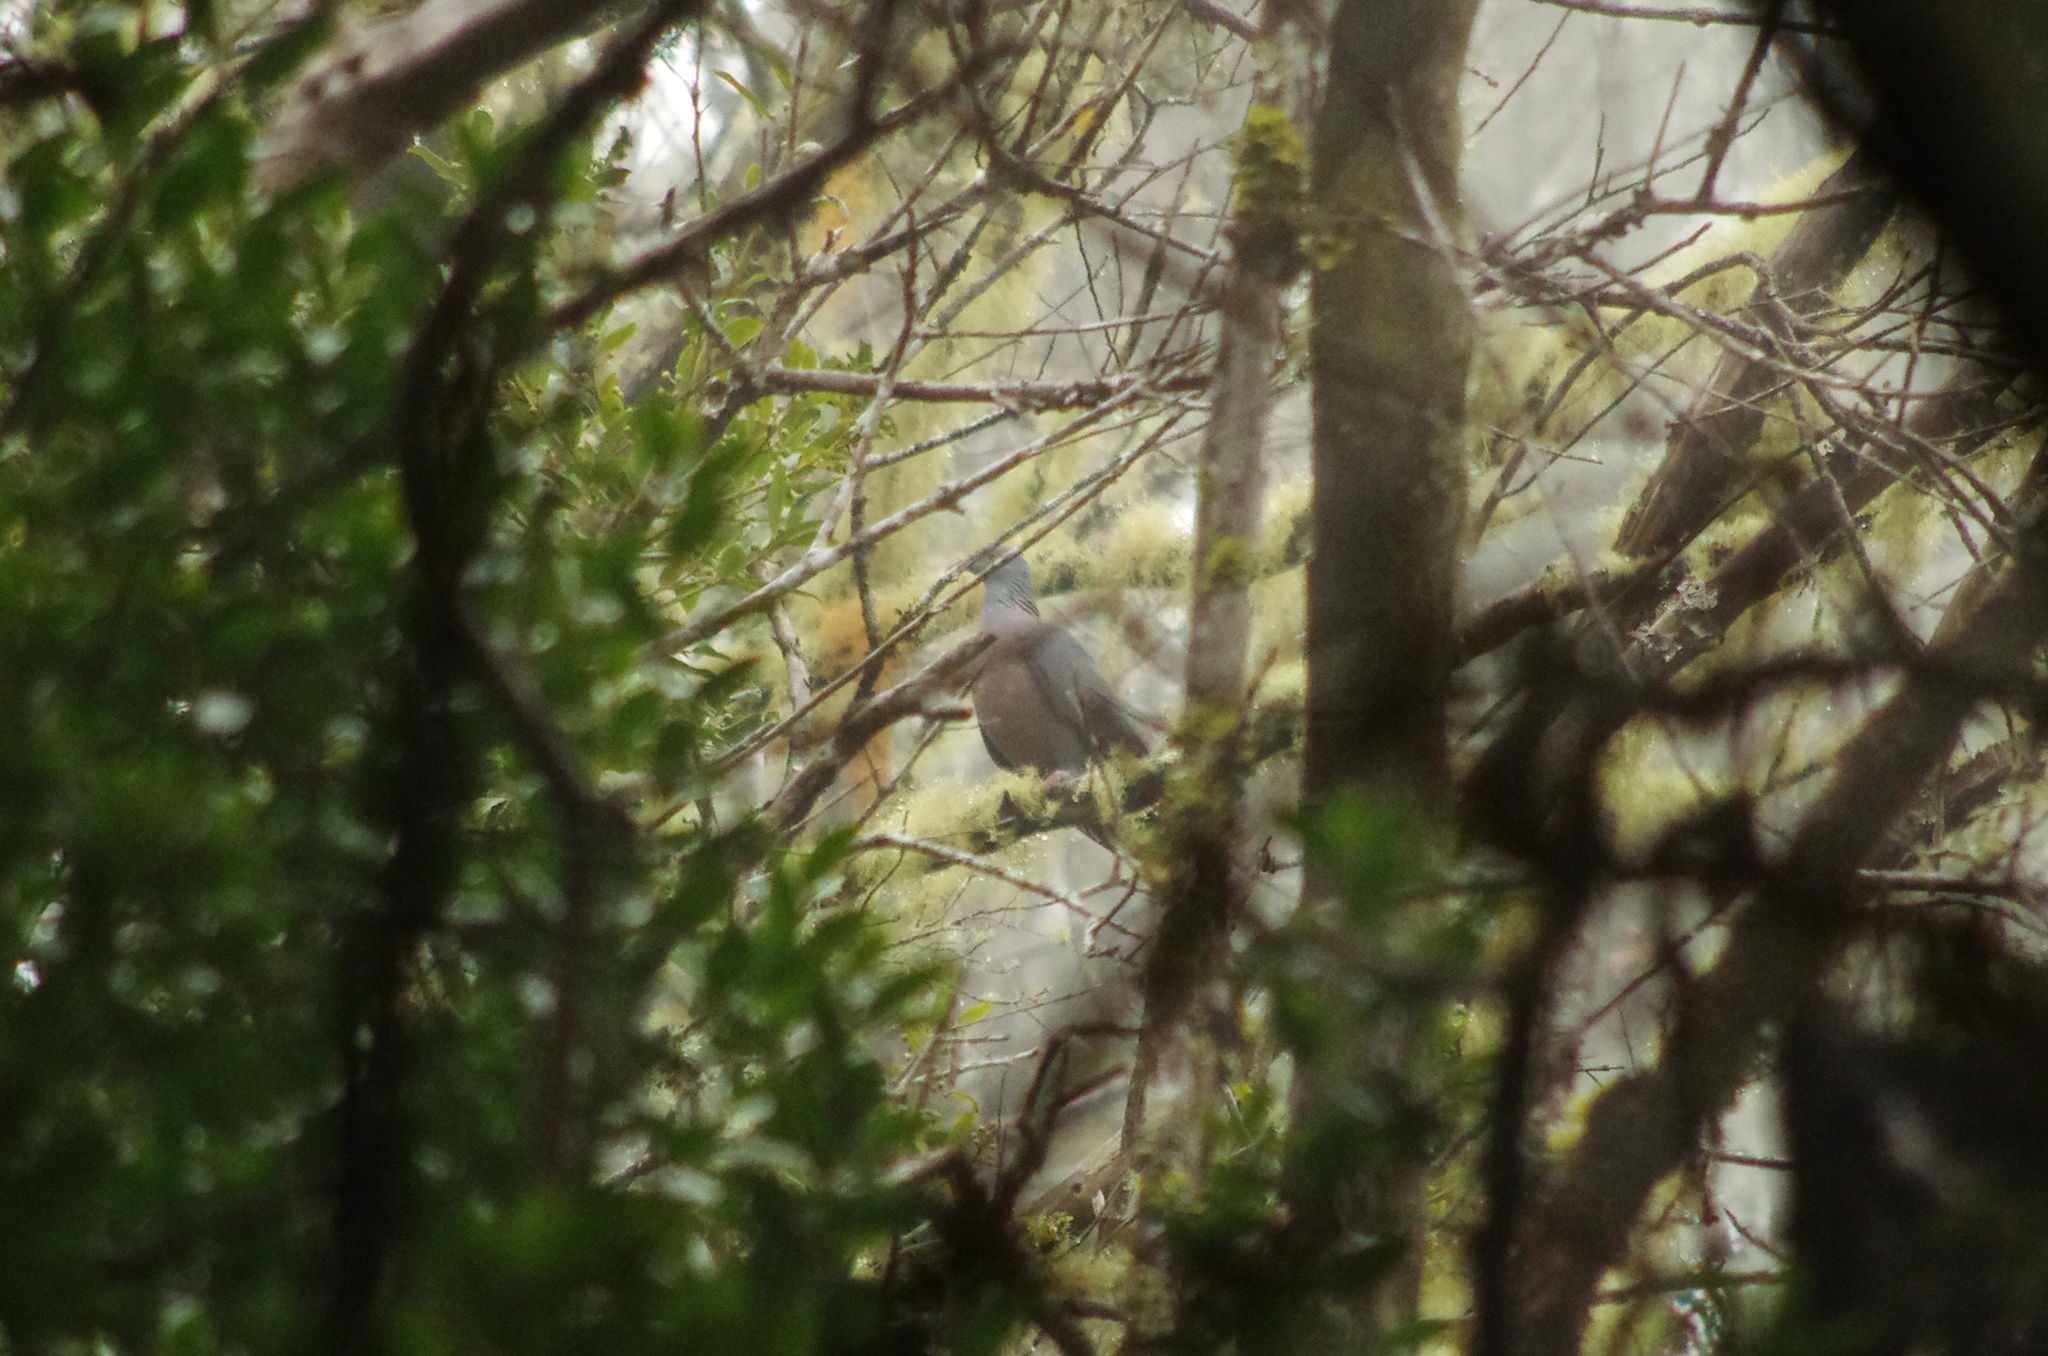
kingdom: Animalia
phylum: Chordata
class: Aves
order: Columbiformes
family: Columbidae
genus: Columba
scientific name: Columba bollii
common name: Bolle's pigeon
